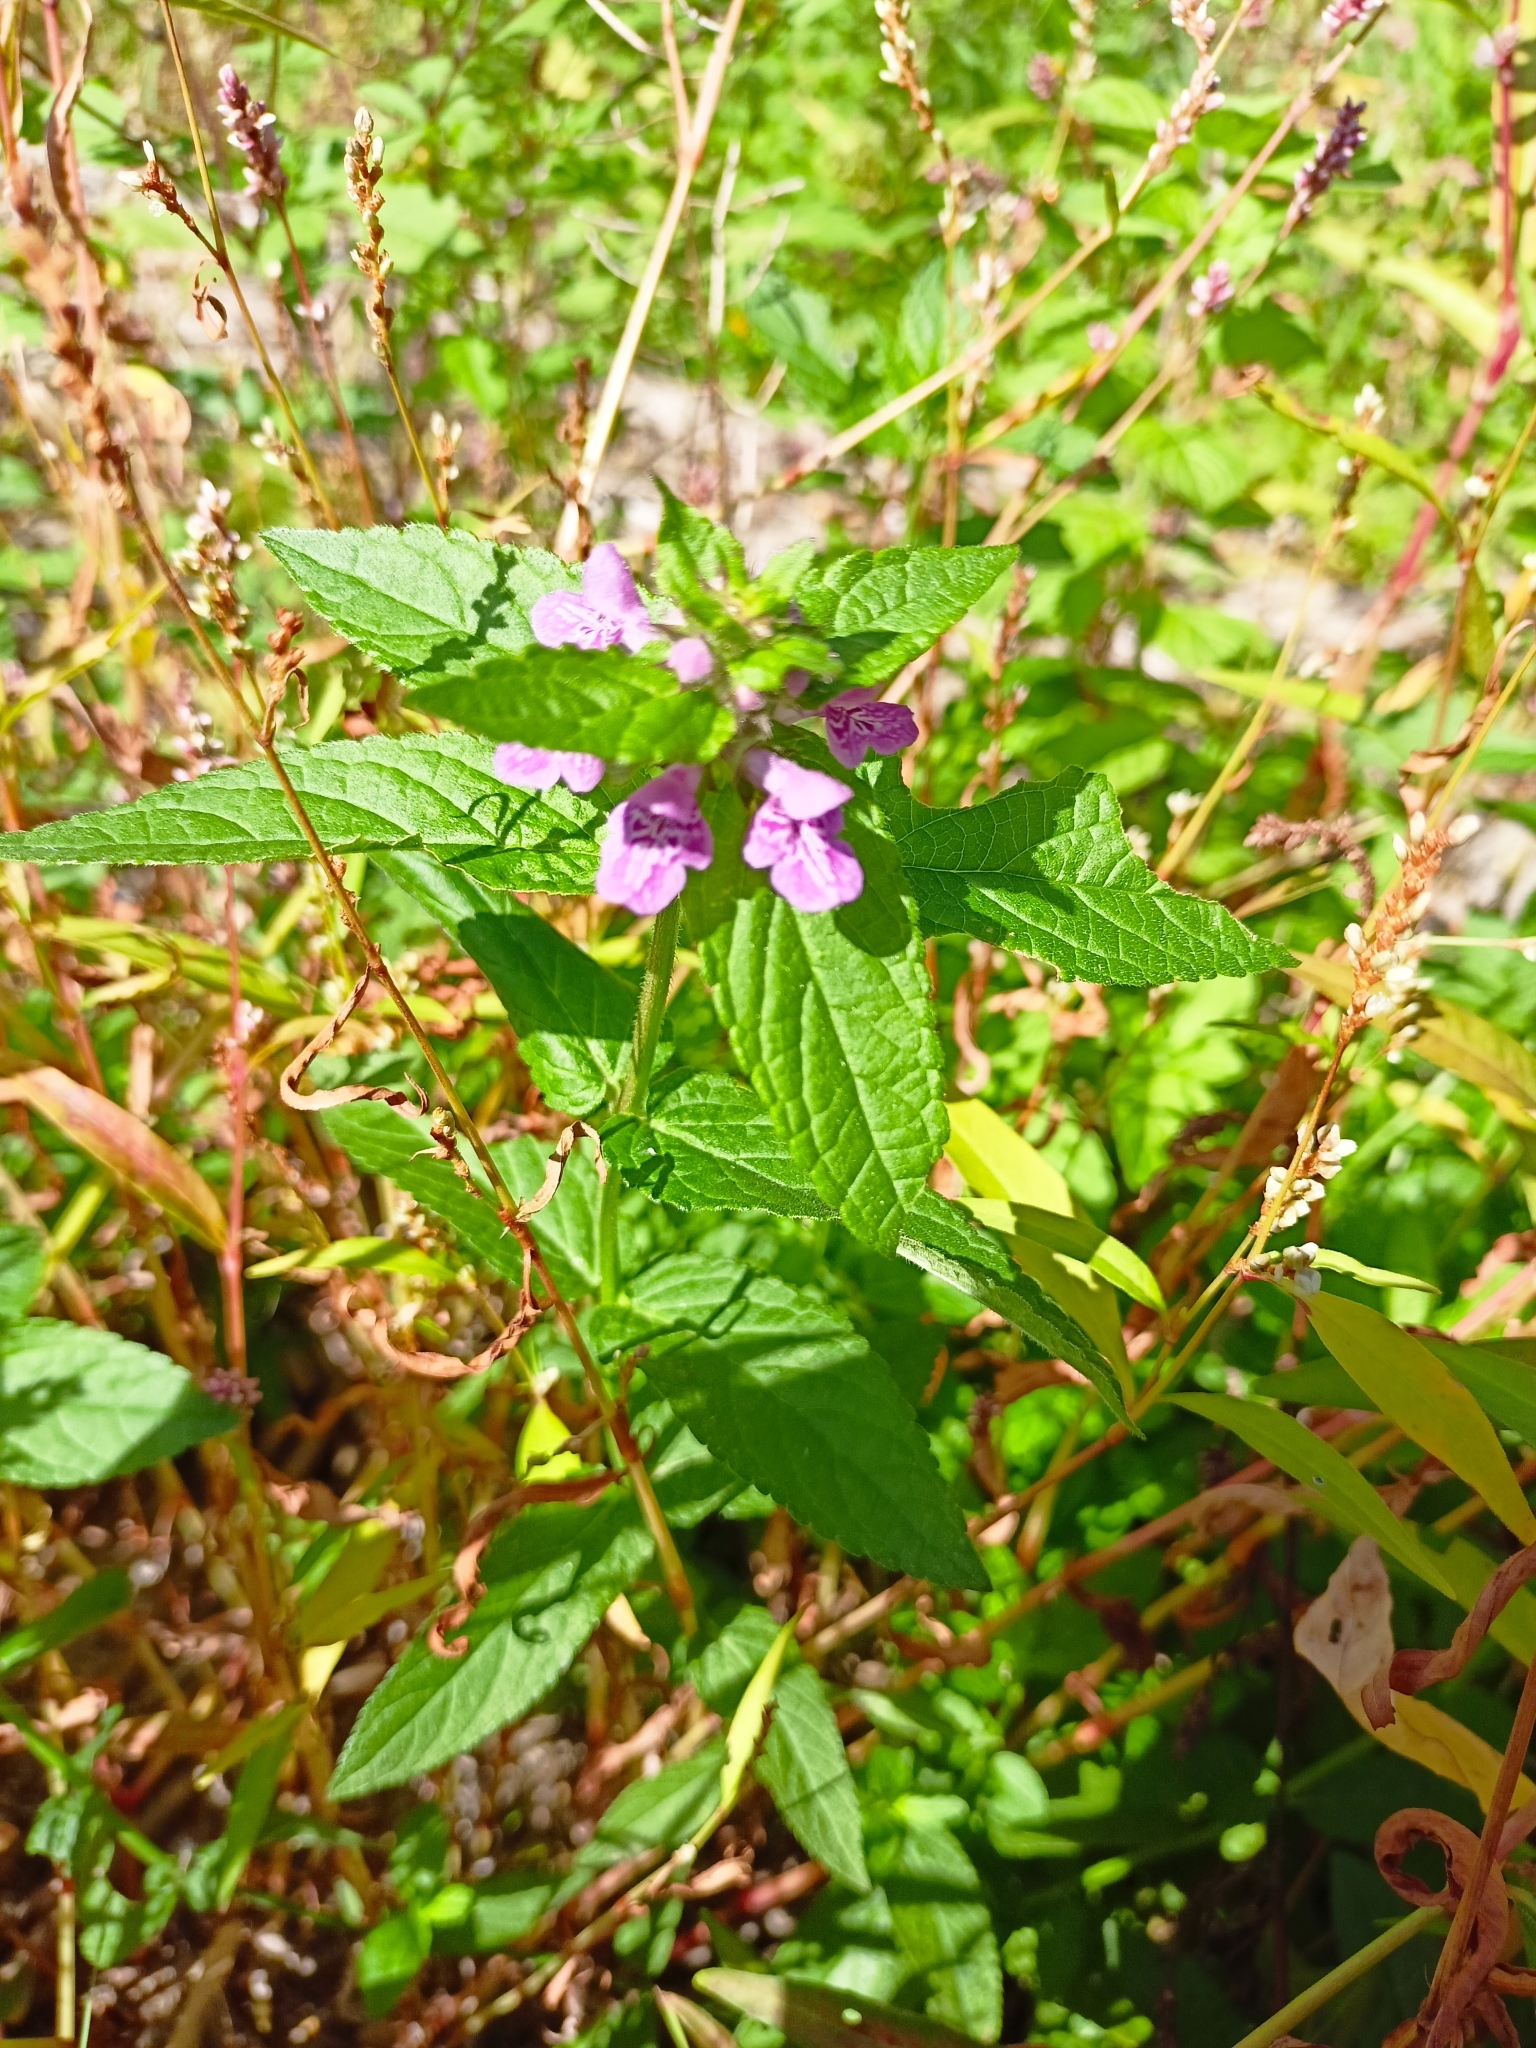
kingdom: Plantae
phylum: Tracheophyta
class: Magnoliopsida
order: Lamiales
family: Lamiaceae
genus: Stachys
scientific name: Stachys palustris
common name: Marsh woundwort
